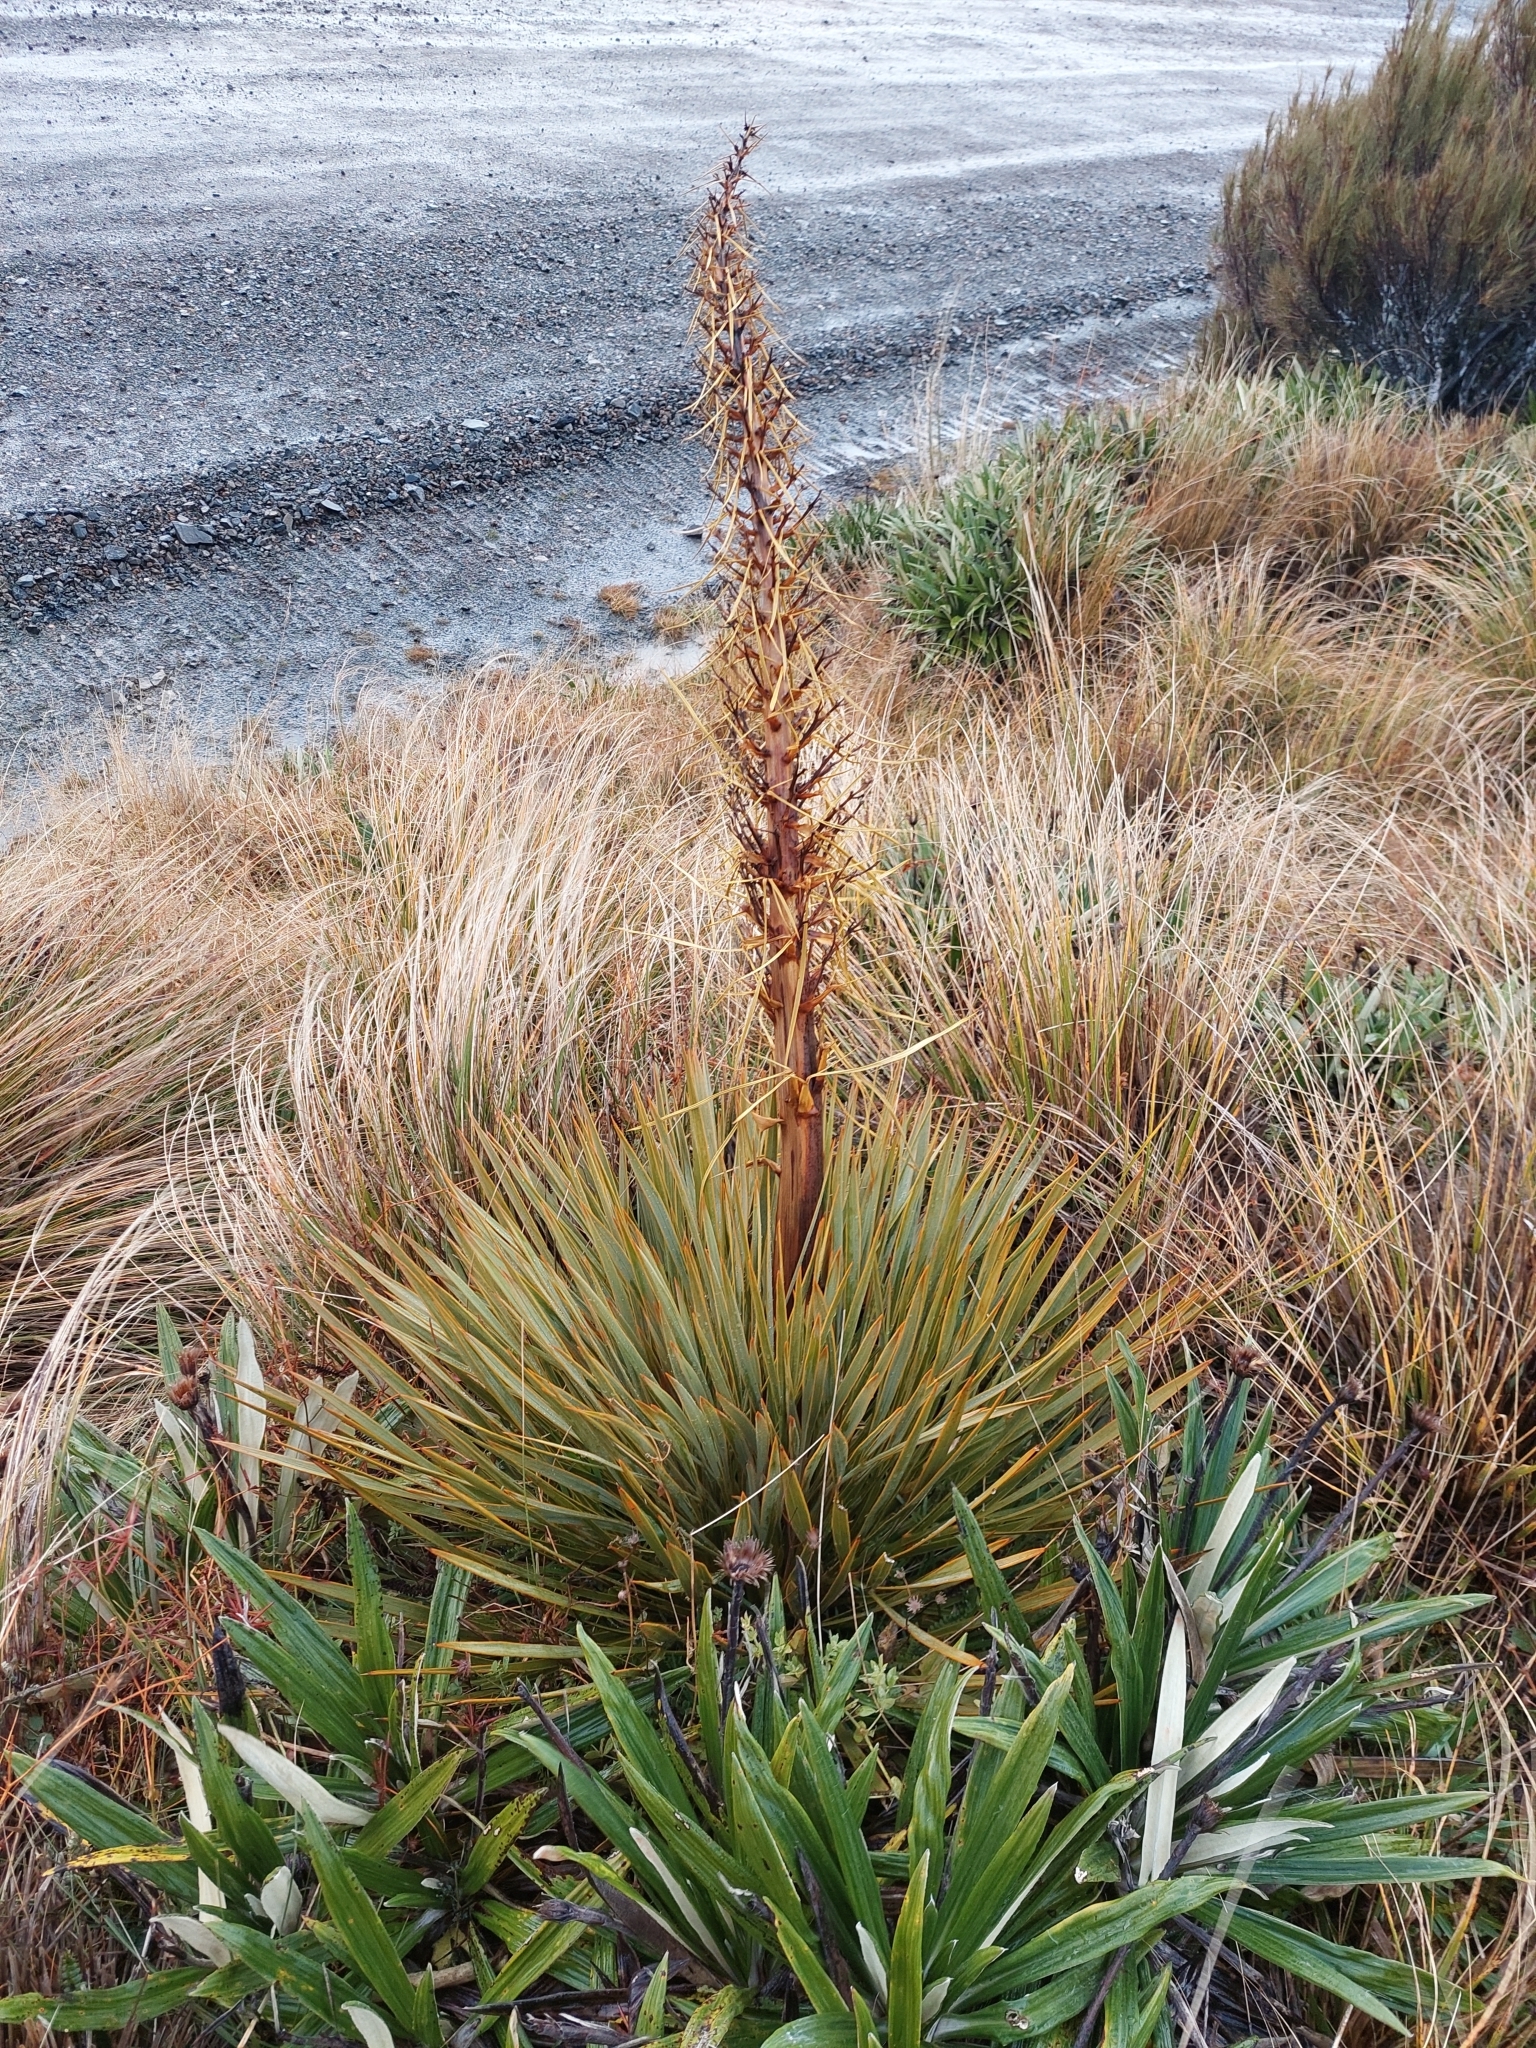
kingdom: Plantae
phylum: Tracheophyta
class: Magnoliopsida
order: Apiales
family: Apiaceae
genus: Aciphylla
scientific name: Aciphylla aurea
